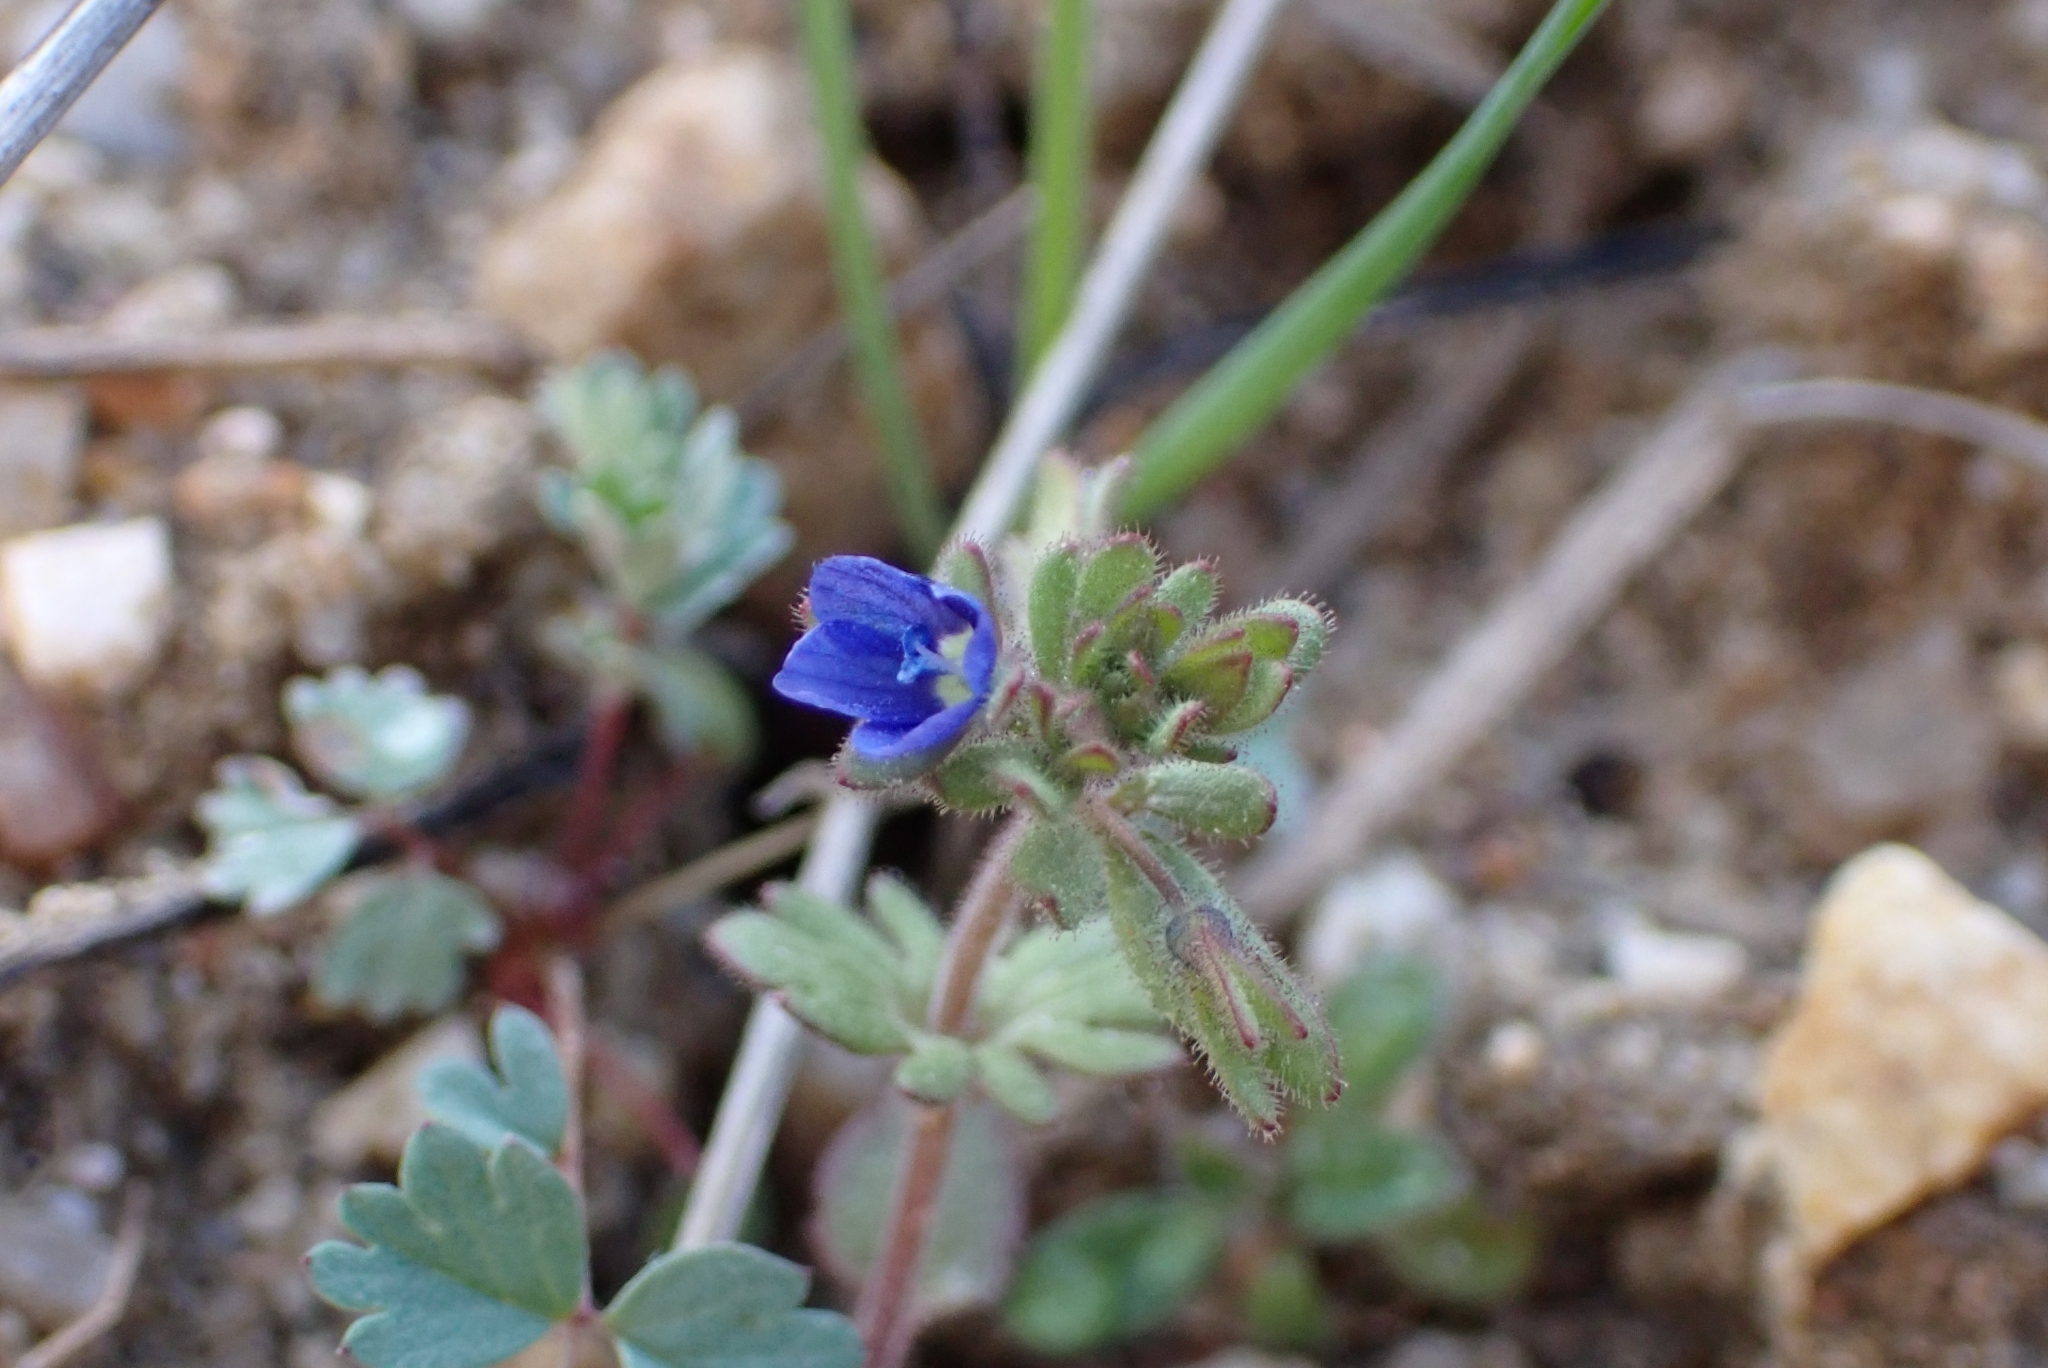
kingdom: Plantae
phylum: Tracheophyta
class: Magnoliopsida
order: Lamiales
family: Plantaginaceae
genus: Veronica
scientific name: Veronica triphyllos
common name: Fingered speedwell
